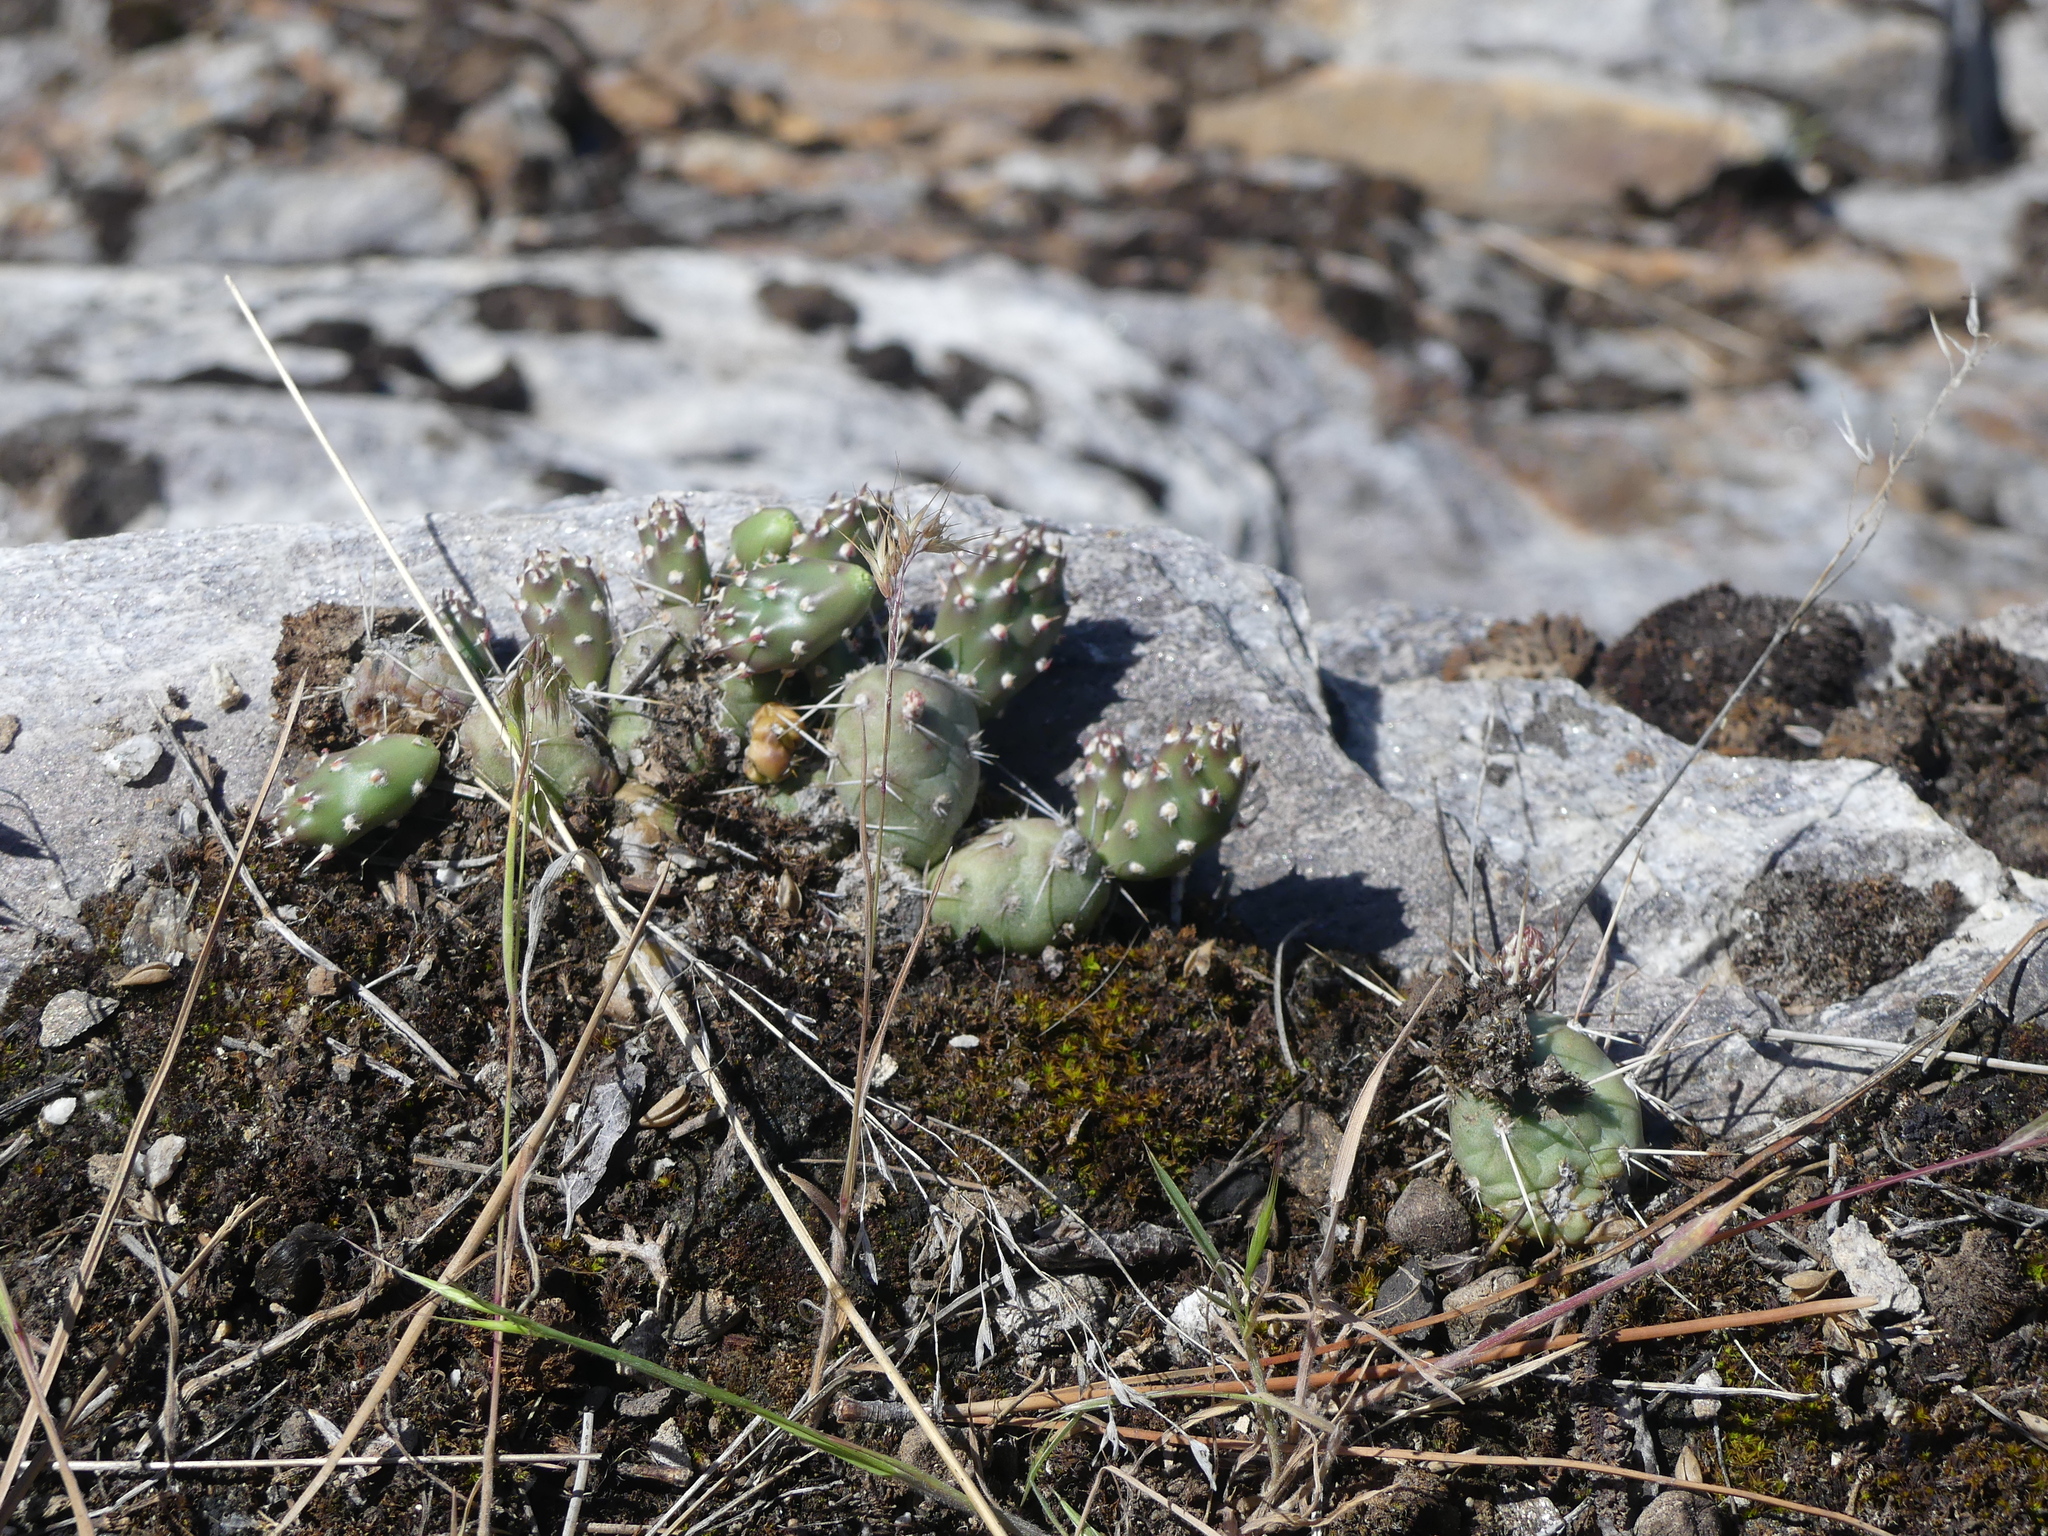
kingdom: Plantae
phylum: Tracheophyta
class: Magnoliopsida
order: Caryophyllales
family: Cactaceae
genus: Opuntia
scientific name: Opuntia fragilis
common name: Brittle cactus
